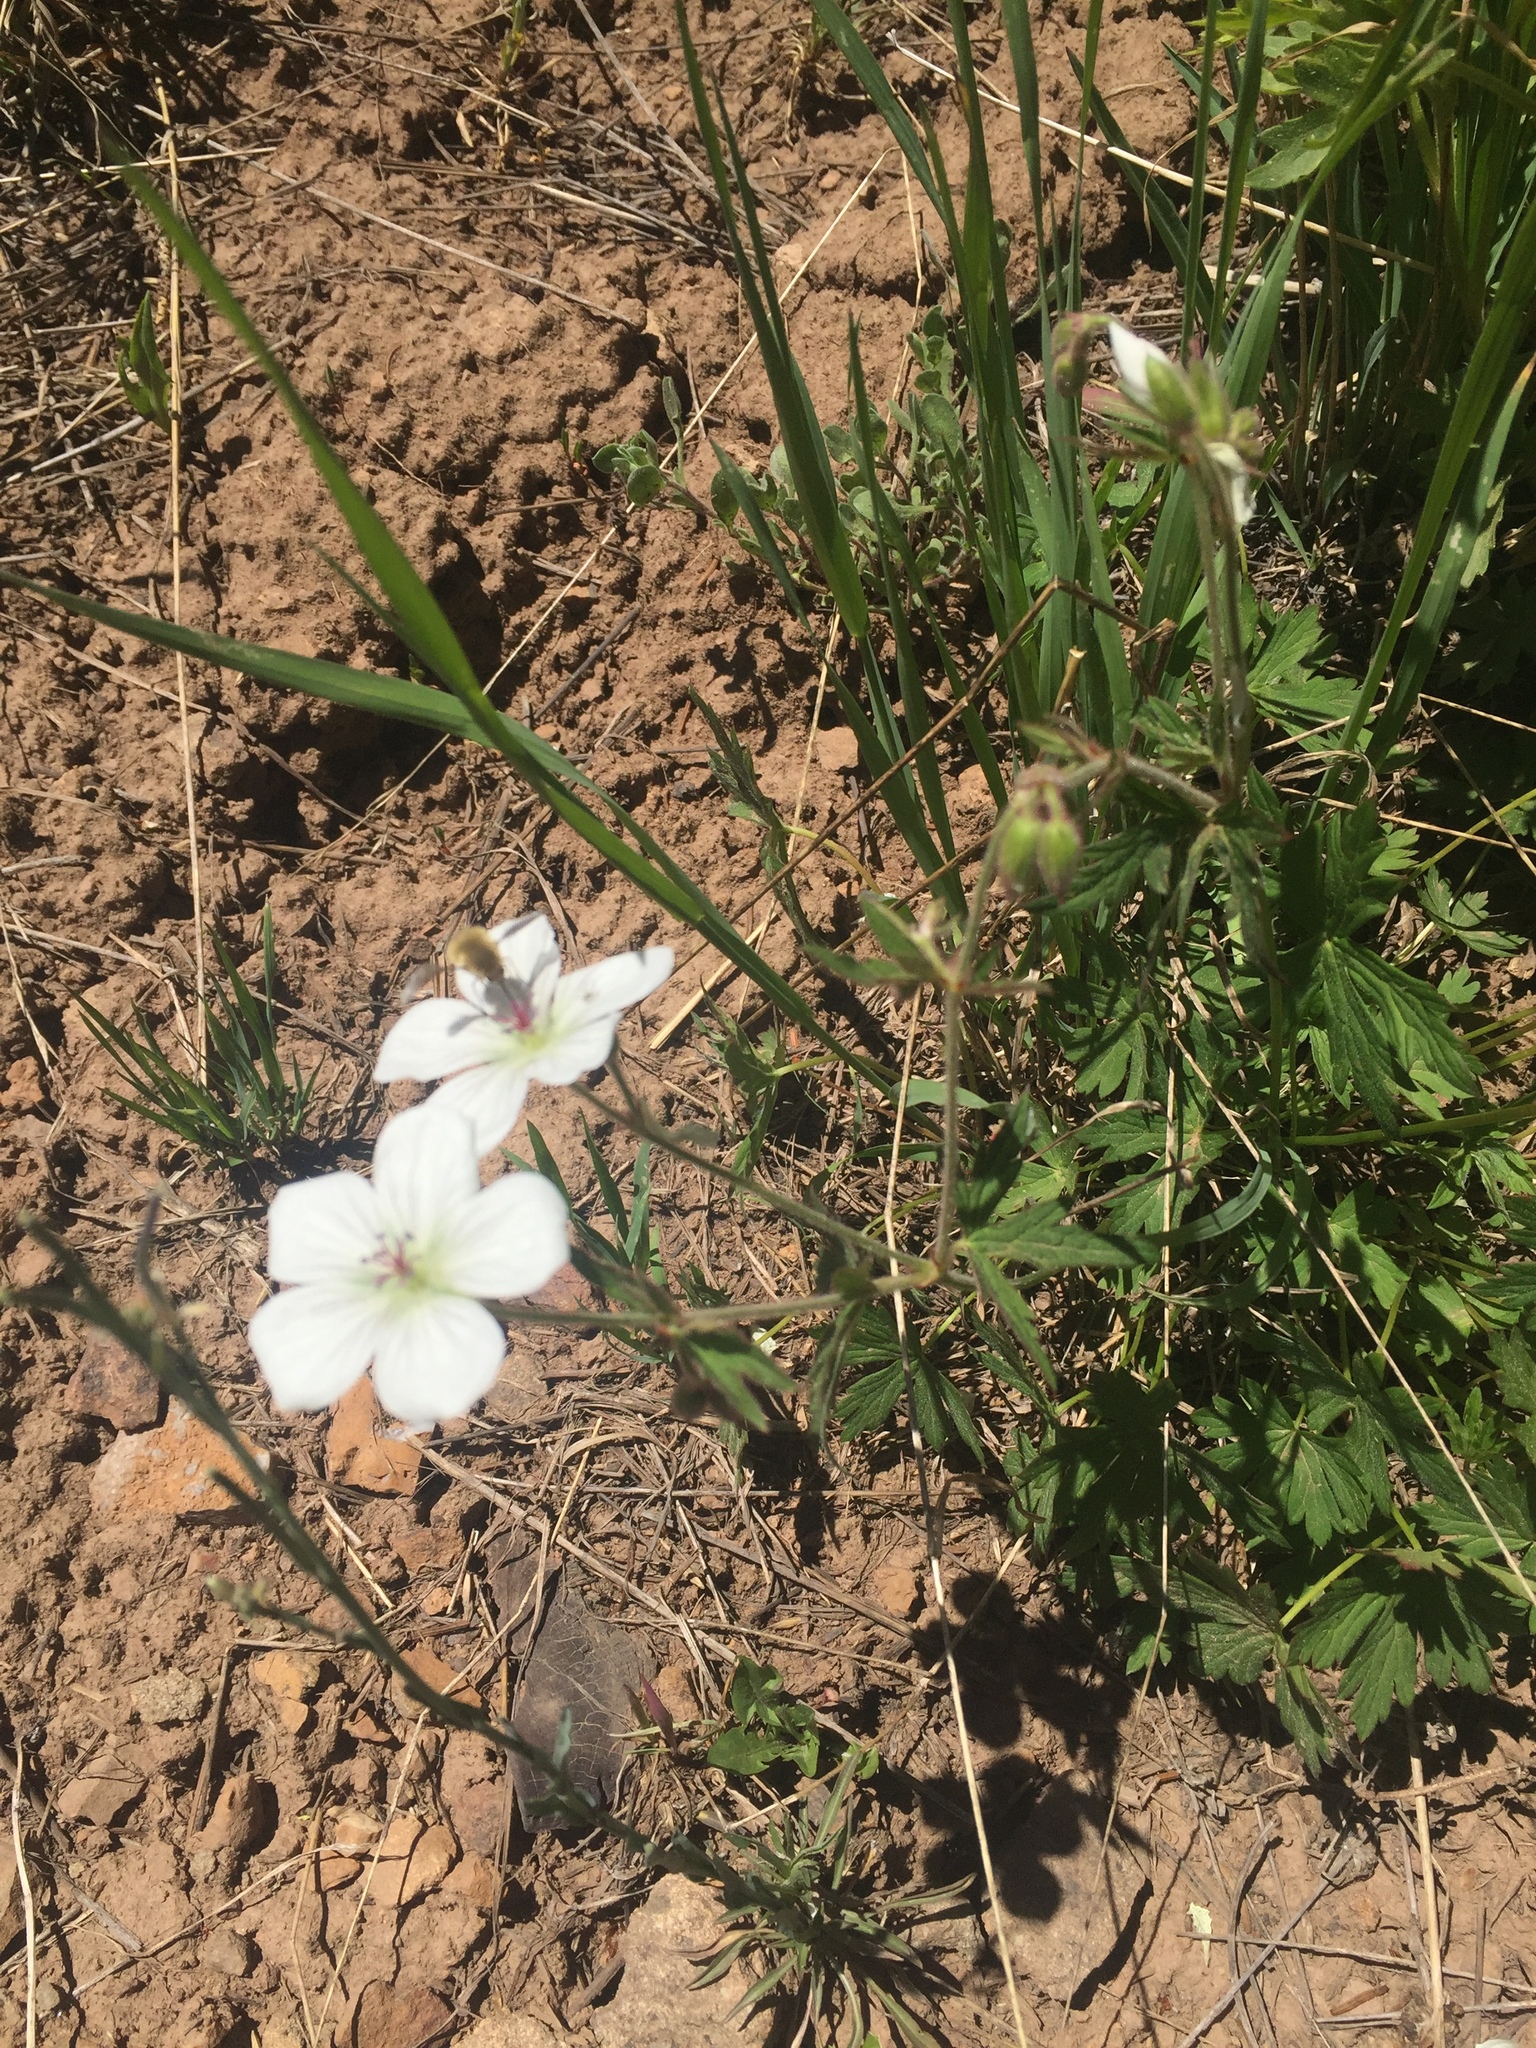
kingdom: Plantae
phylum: Tracheophyta
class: Magnoliopsida
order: Geraniales
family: Geraniaceae
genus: Geranium
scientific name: Geranium richardsonii
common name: Richardson's crane's-bill
